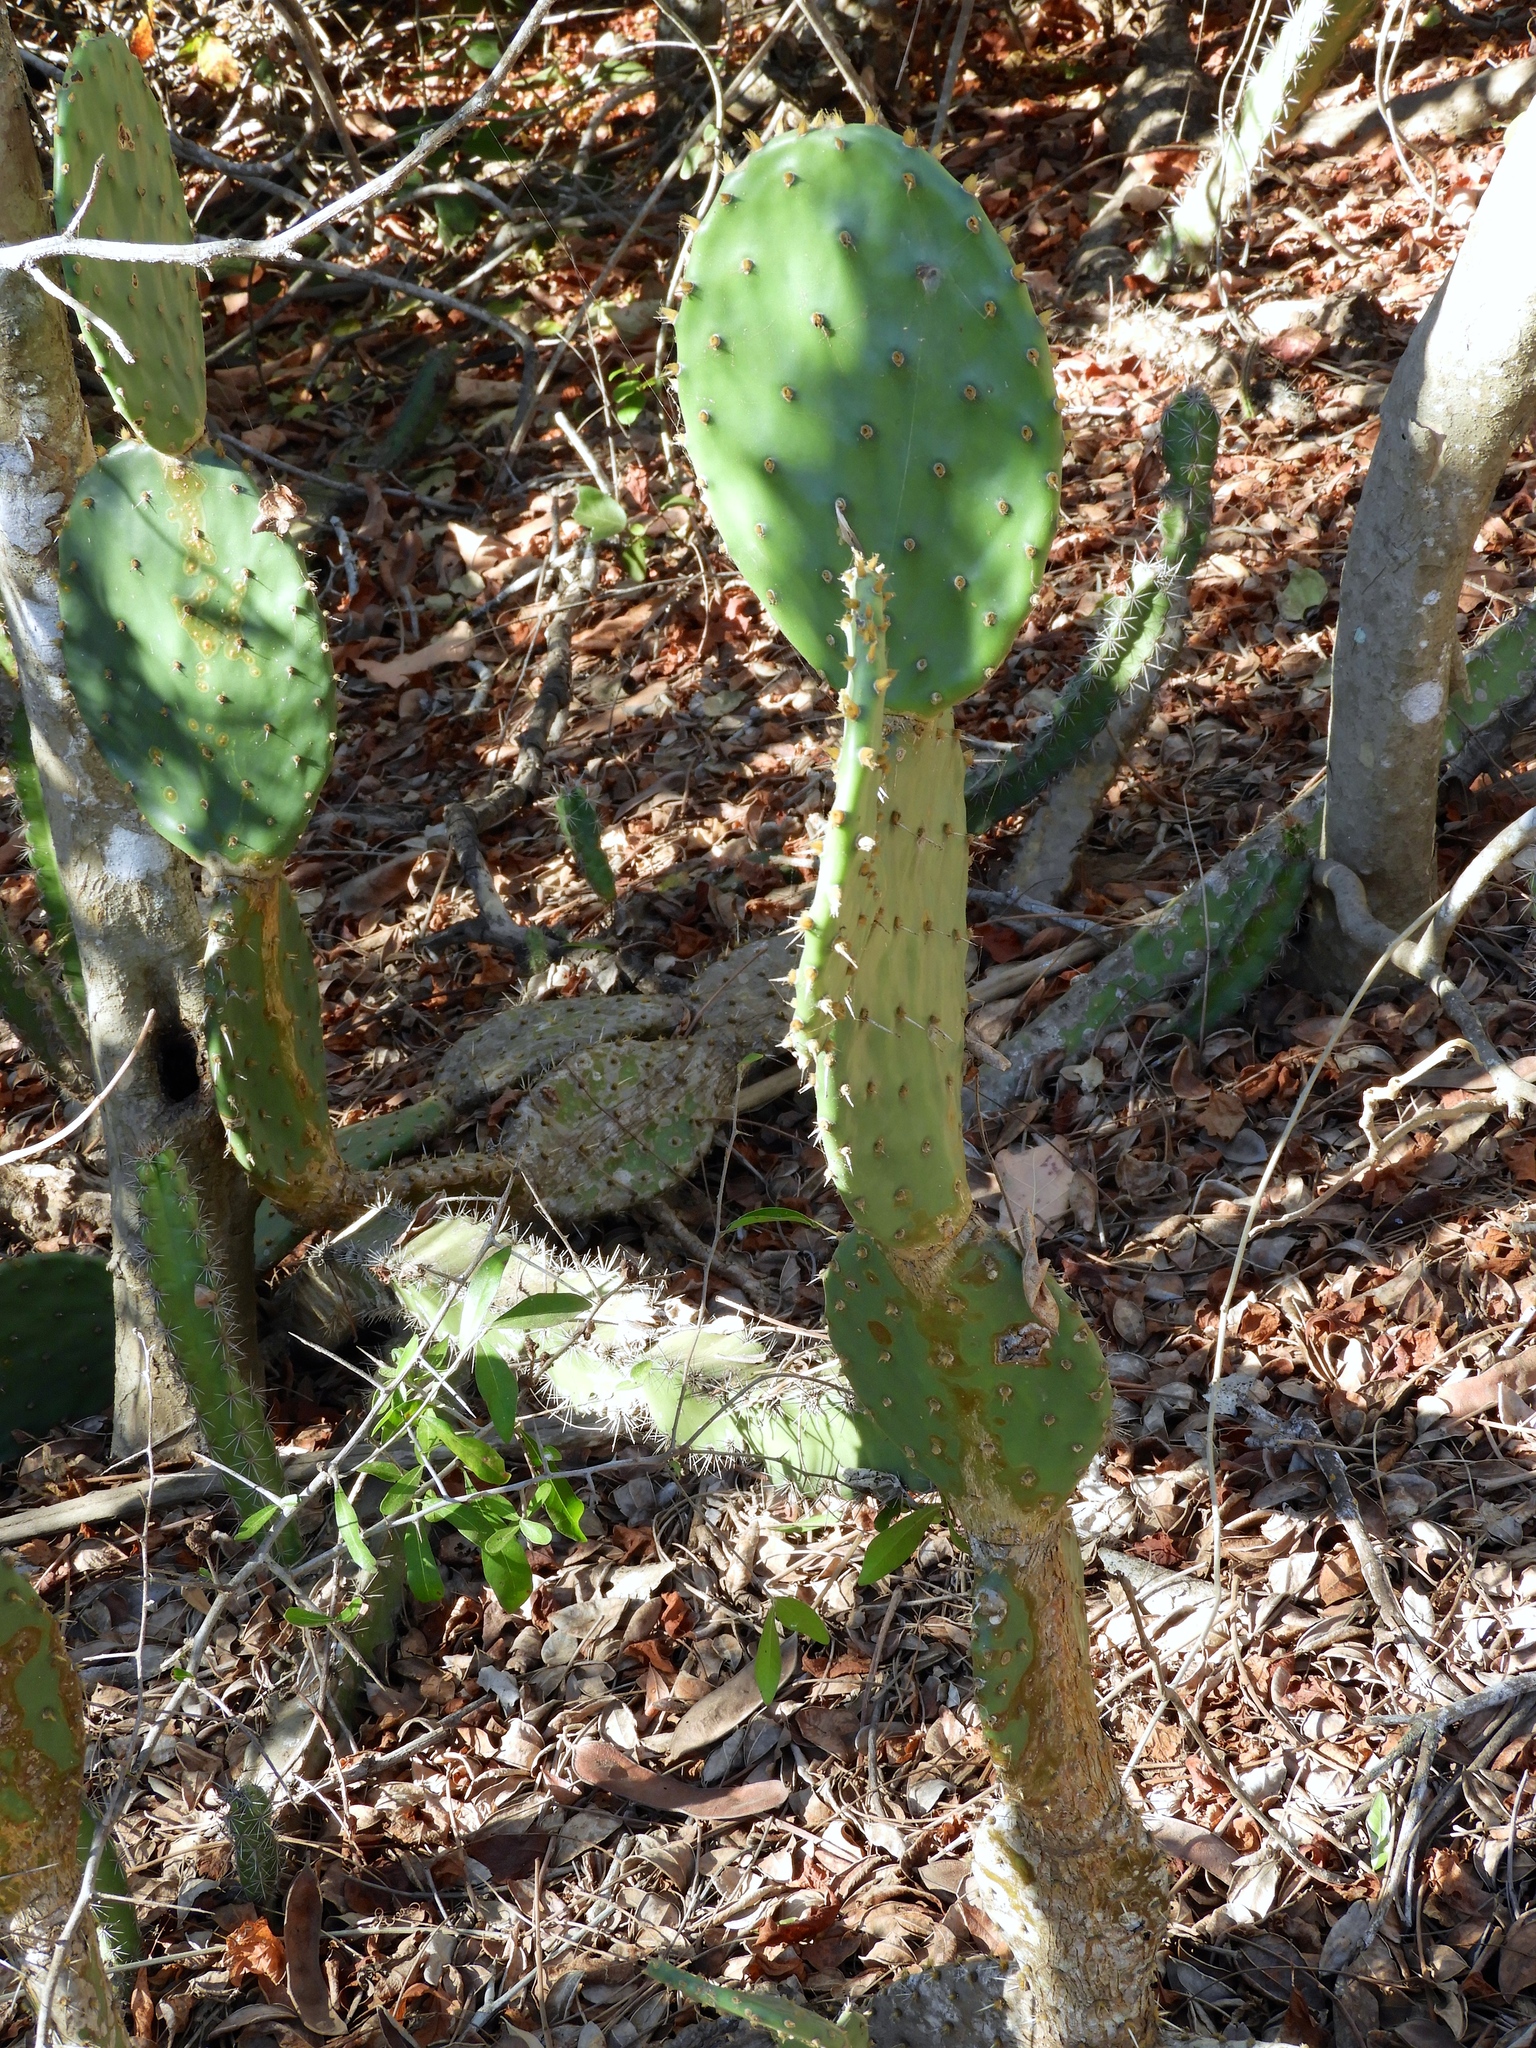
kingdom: Plantae
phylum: Tracheophyta
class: Magnoliopsida
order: Caryophyllales
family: Cactaceae
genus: Opuntia
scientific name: Opuntia
